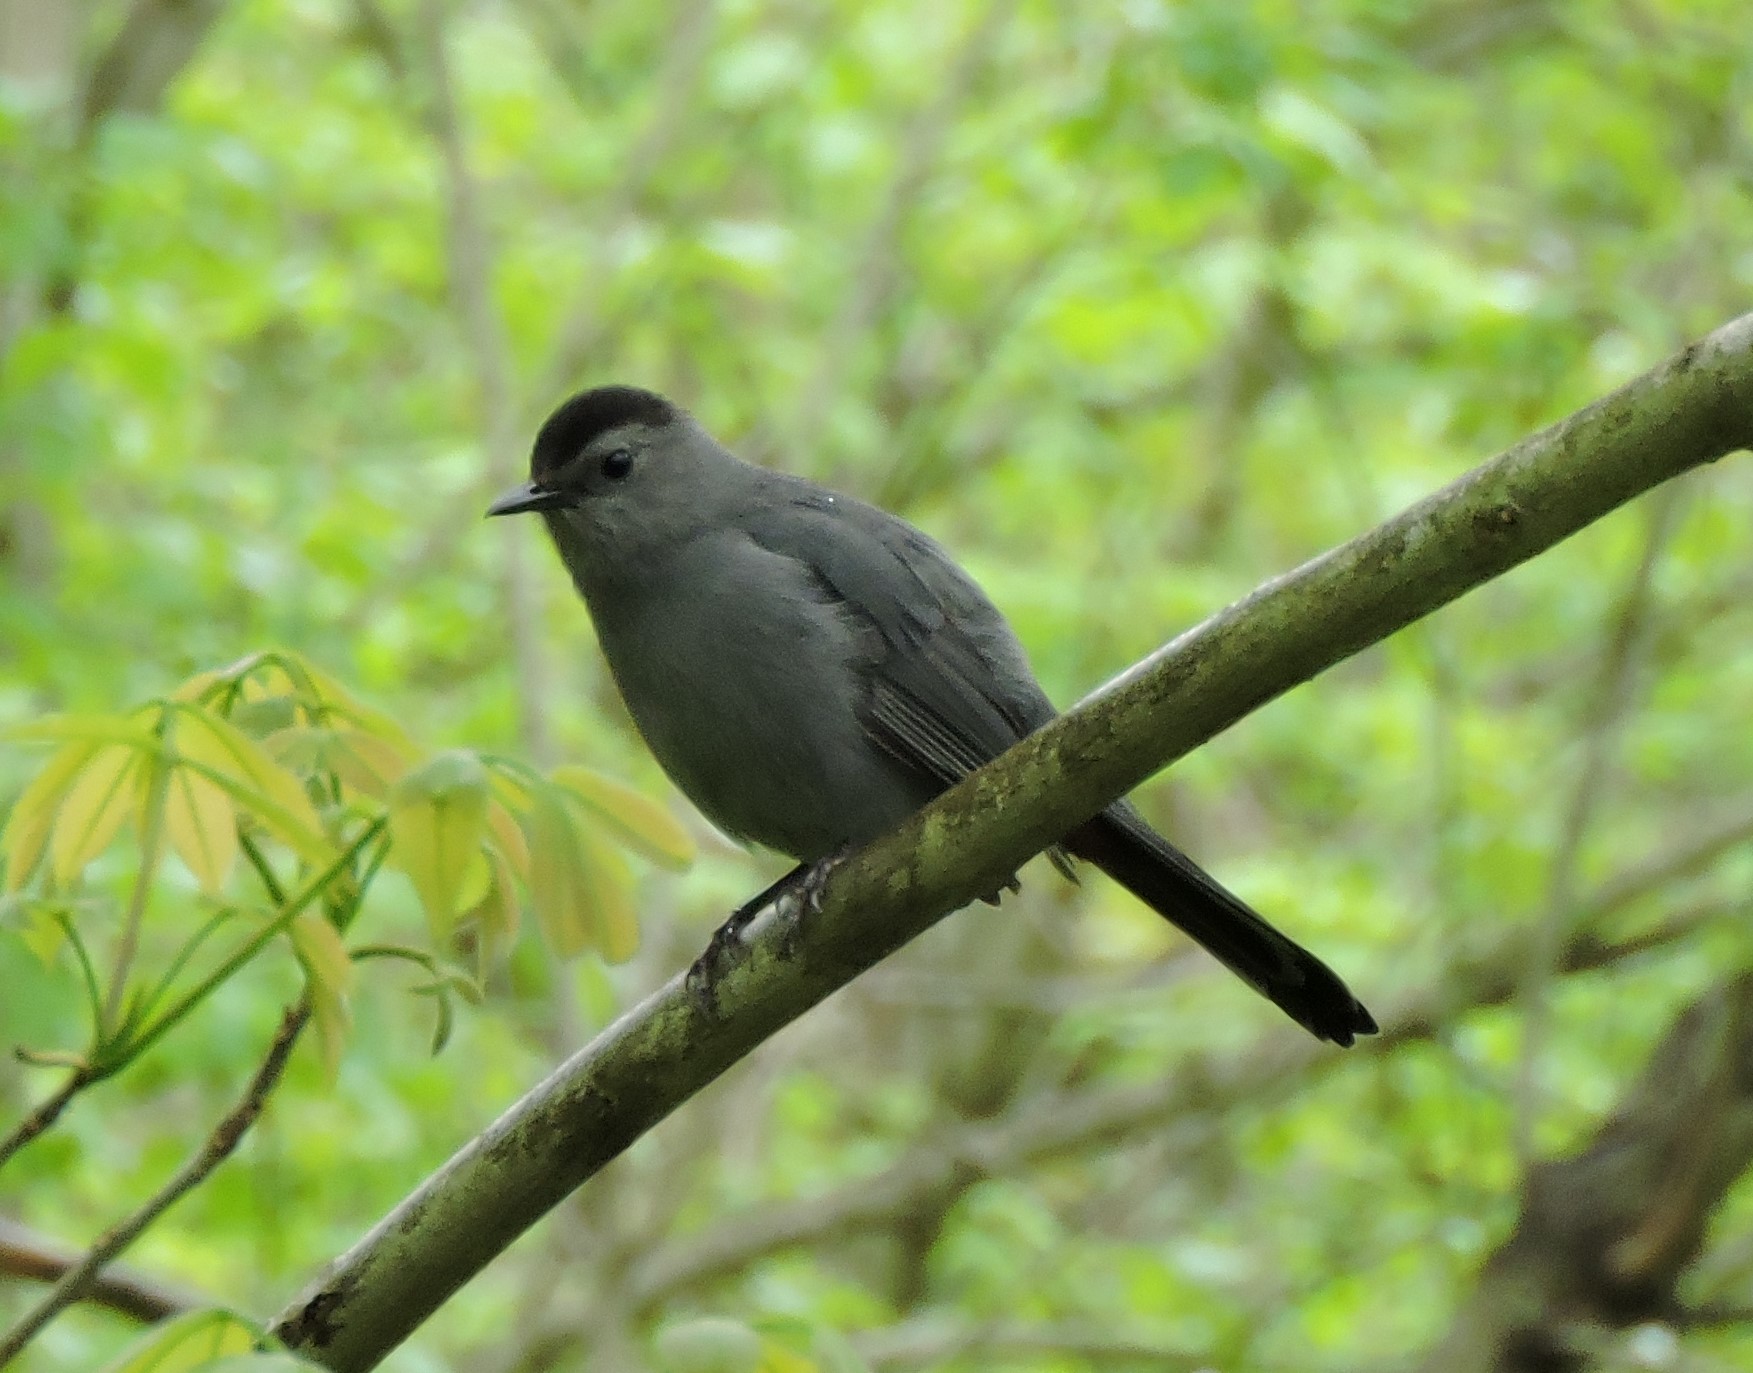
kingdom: Animalia
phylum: Chordata
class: Aves
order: Passeriformes
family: Mimidae
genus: Dumetella
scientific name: Dumetella carolinensis
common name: Gray catbird
